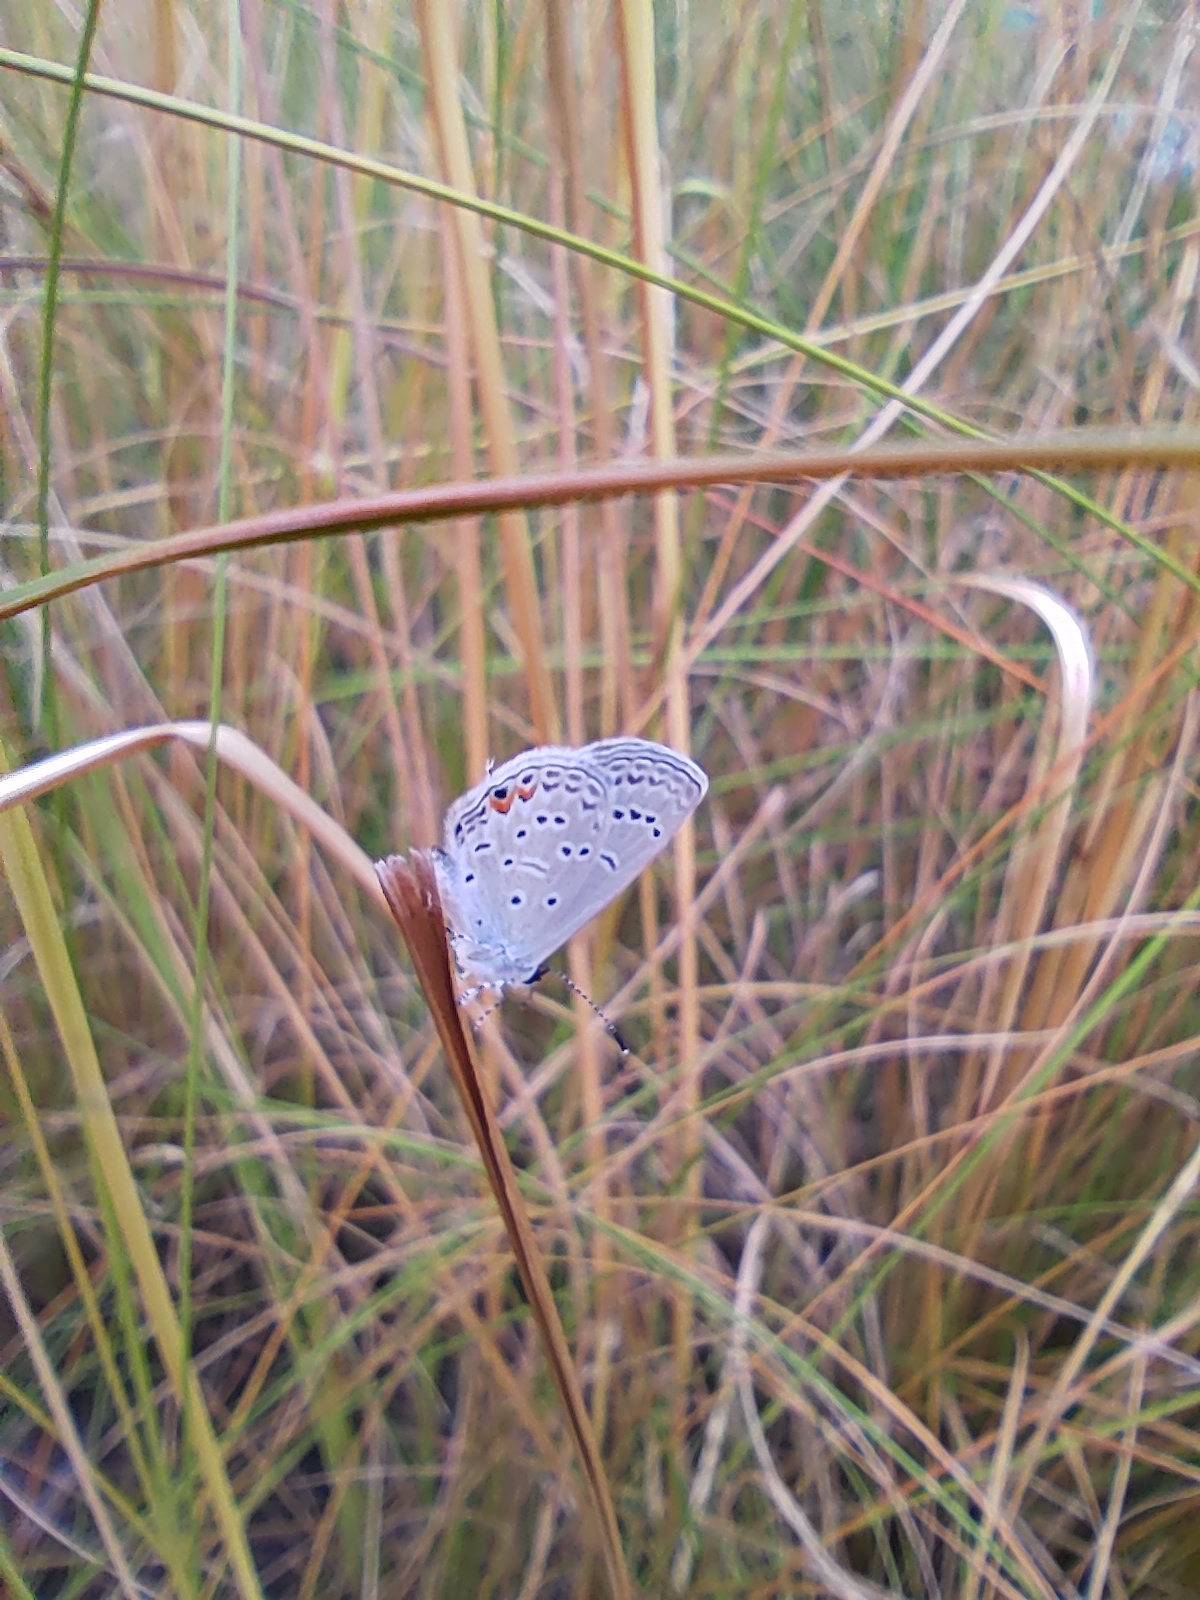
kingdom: Animalia
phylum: Arthropoda
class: Insecta
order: Lepidoptera
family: Lycaenidae
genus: Elkalyce
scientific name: Elkalyce comyntas
